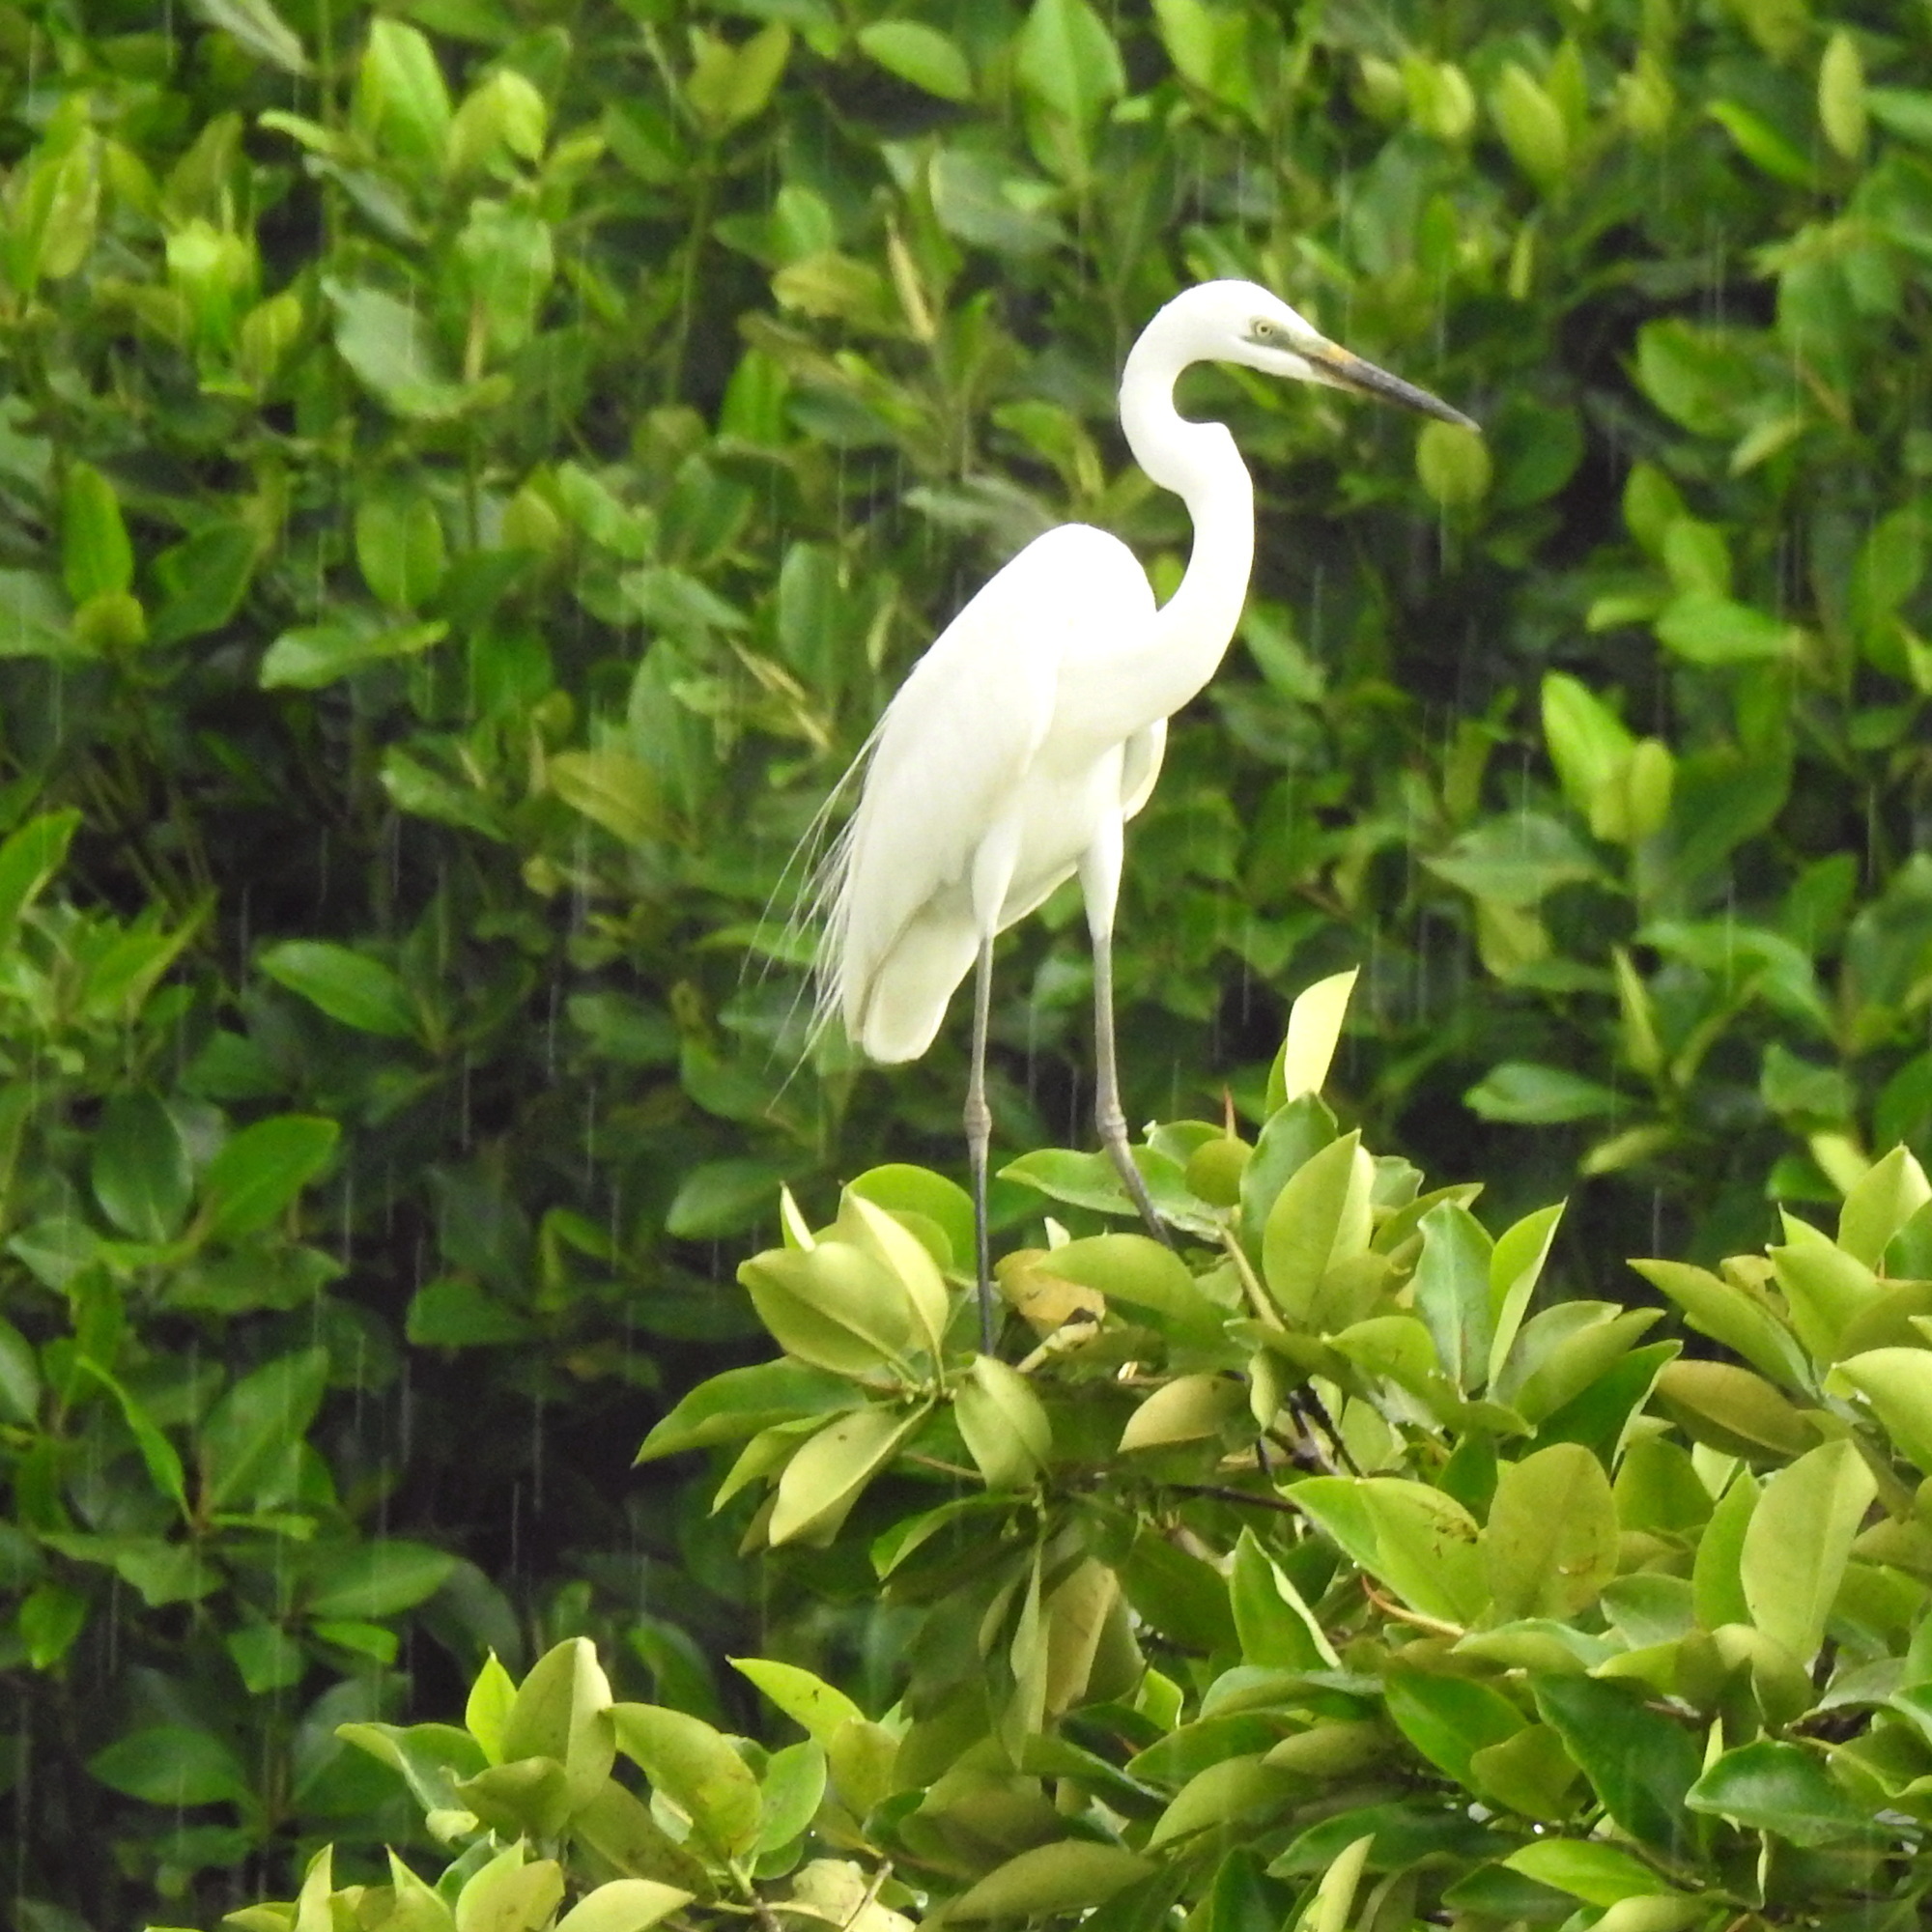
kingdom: Animalia
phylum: Chordata
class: Aves
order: Pelecaniformes
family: Ardeidae
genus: Ardea
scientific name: Ardea alba
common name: Great egret
